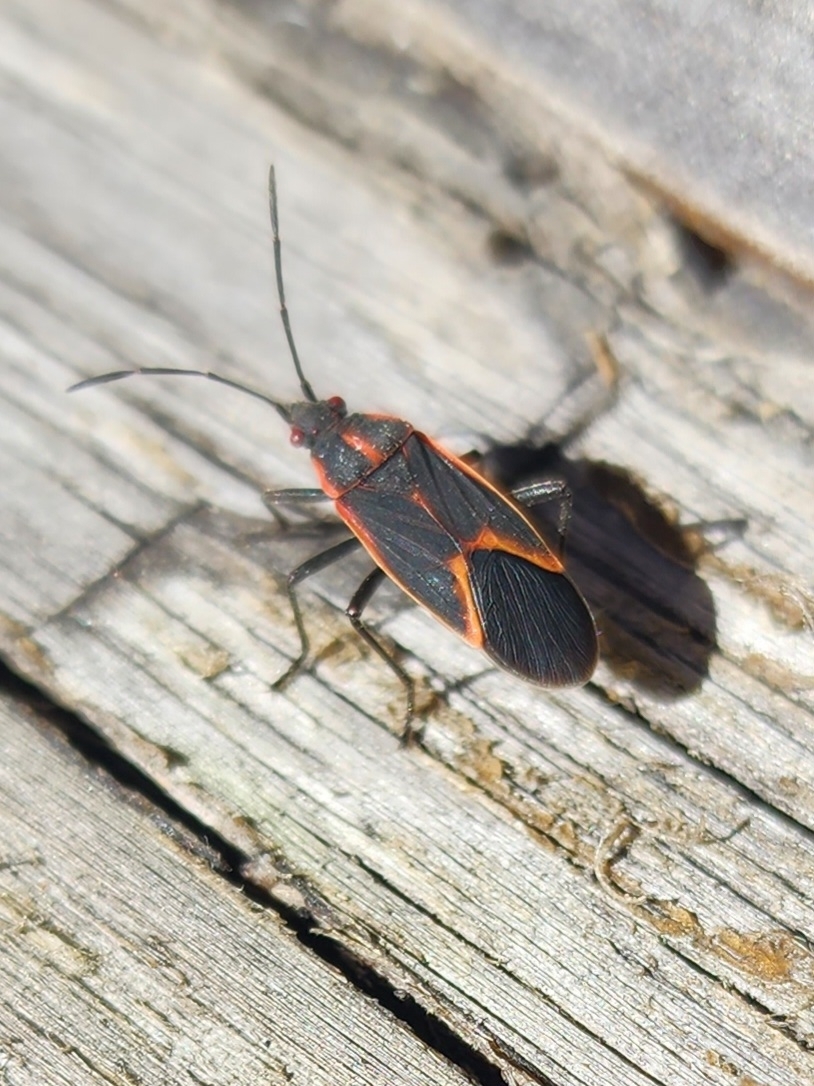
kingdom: Animalia
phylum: Arthropoda
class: Insecta
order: Hemiptera
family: Rhopalidae
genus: Boisea
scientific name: Boisea trivittata
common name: Boxelder bug
